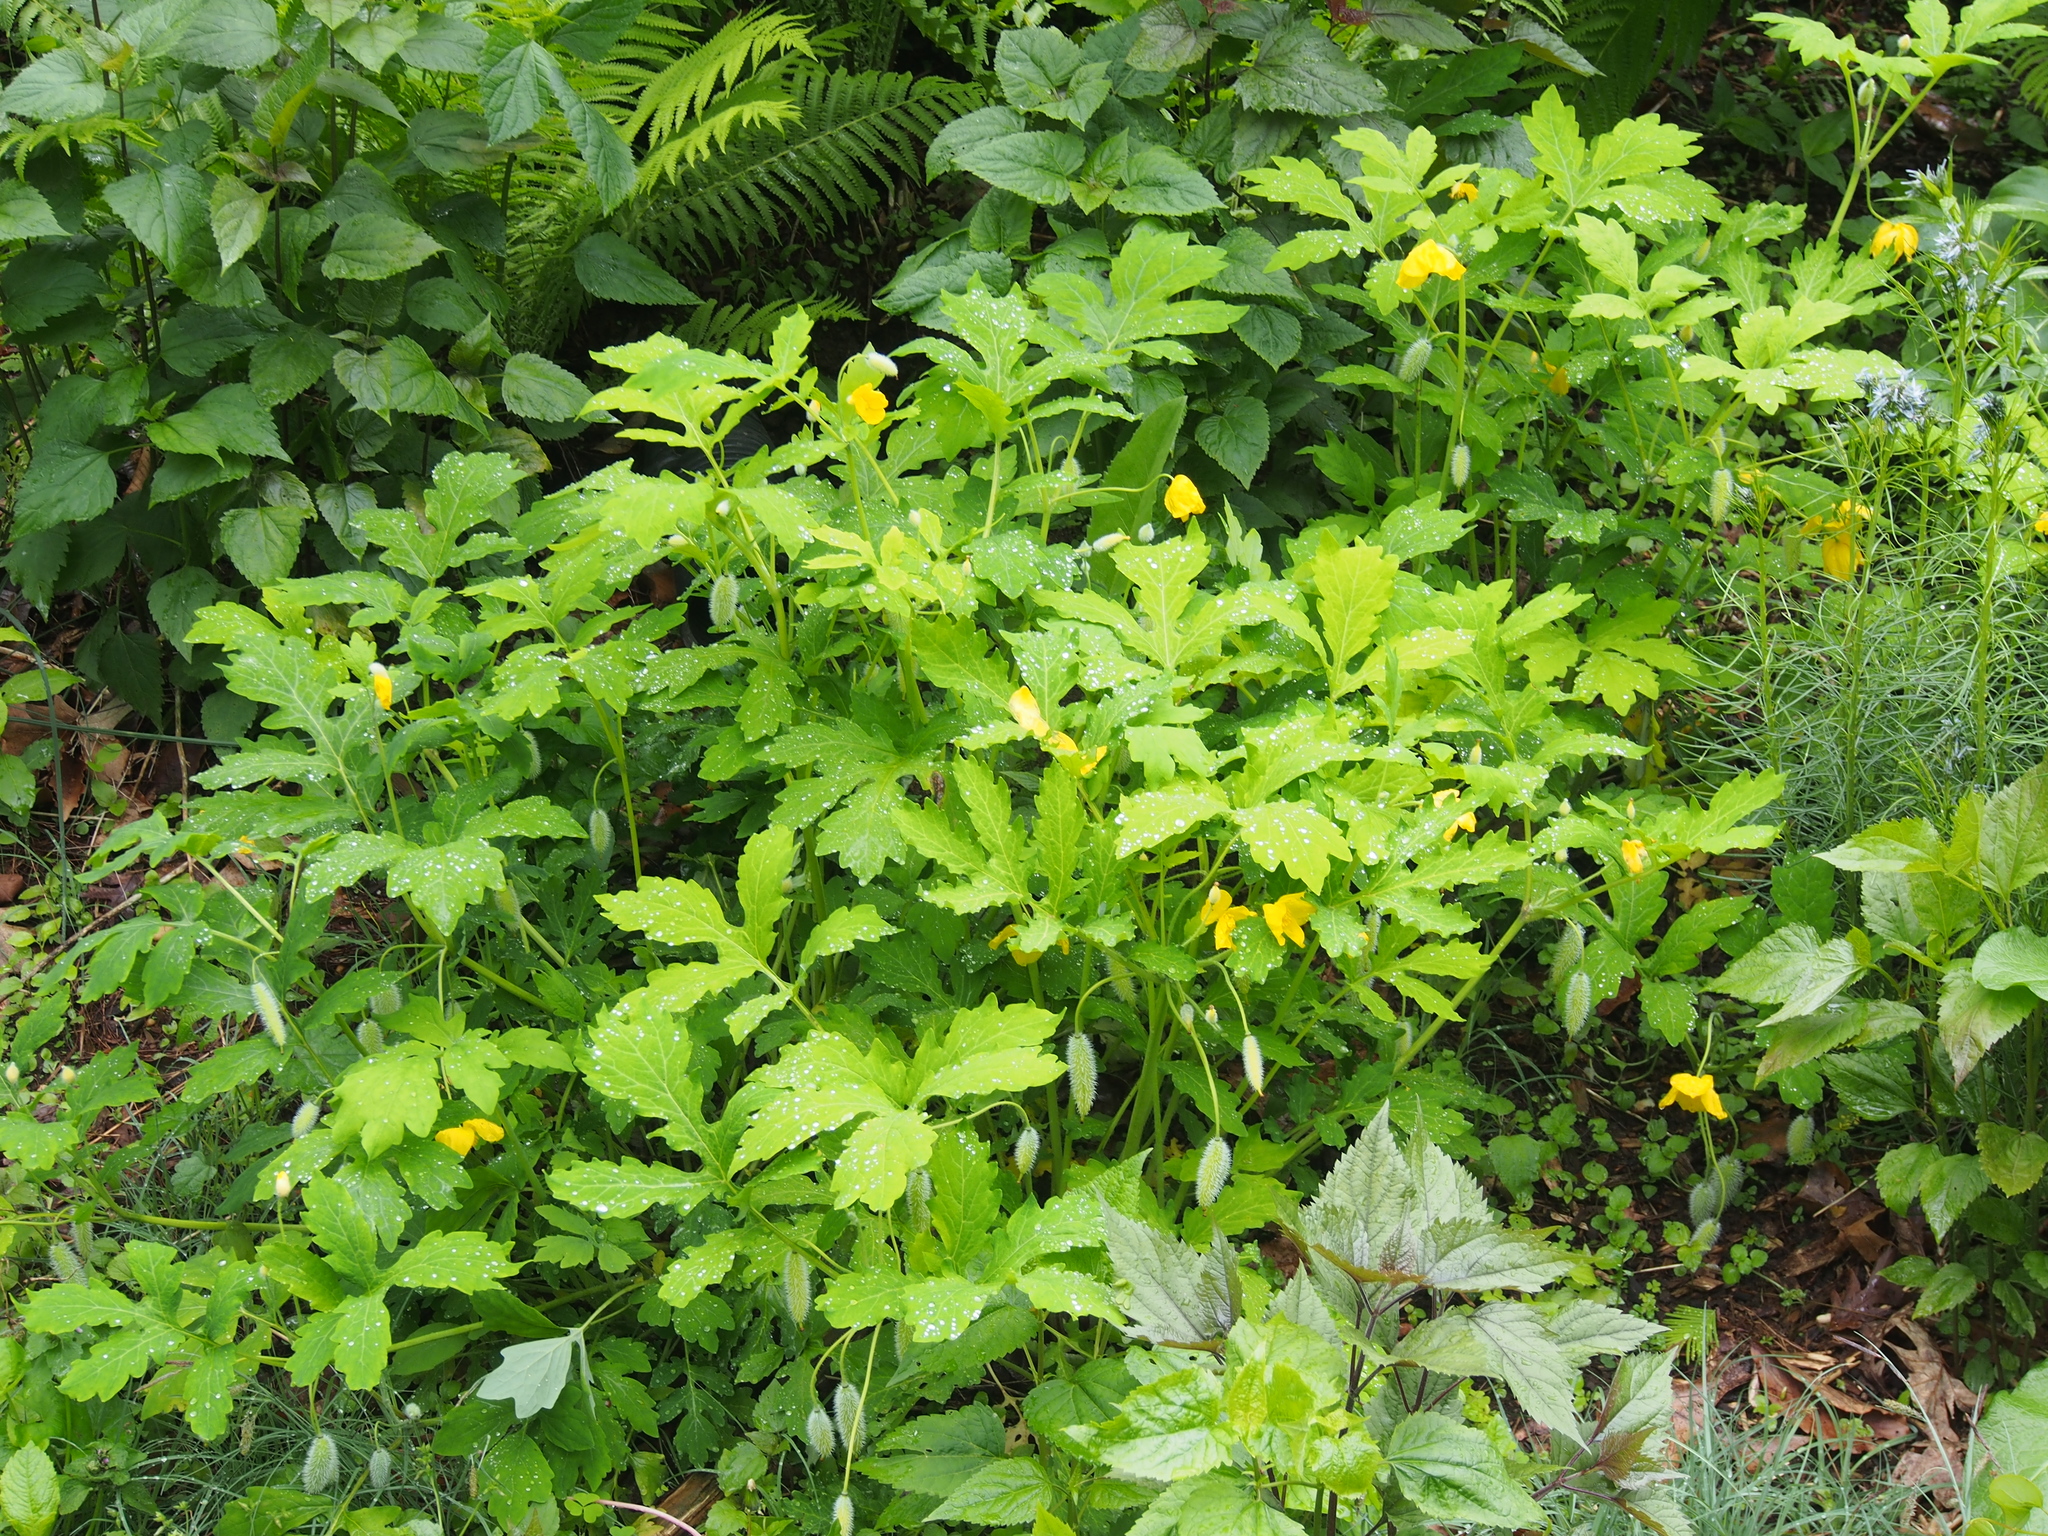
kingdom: Plantae
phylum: Tracheophyta
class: Magnoliopsida
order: Ranunculales
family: Papaveraceae
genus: Stylophorum
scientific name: Stylophorum diphyllum
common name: Celandine poppy
